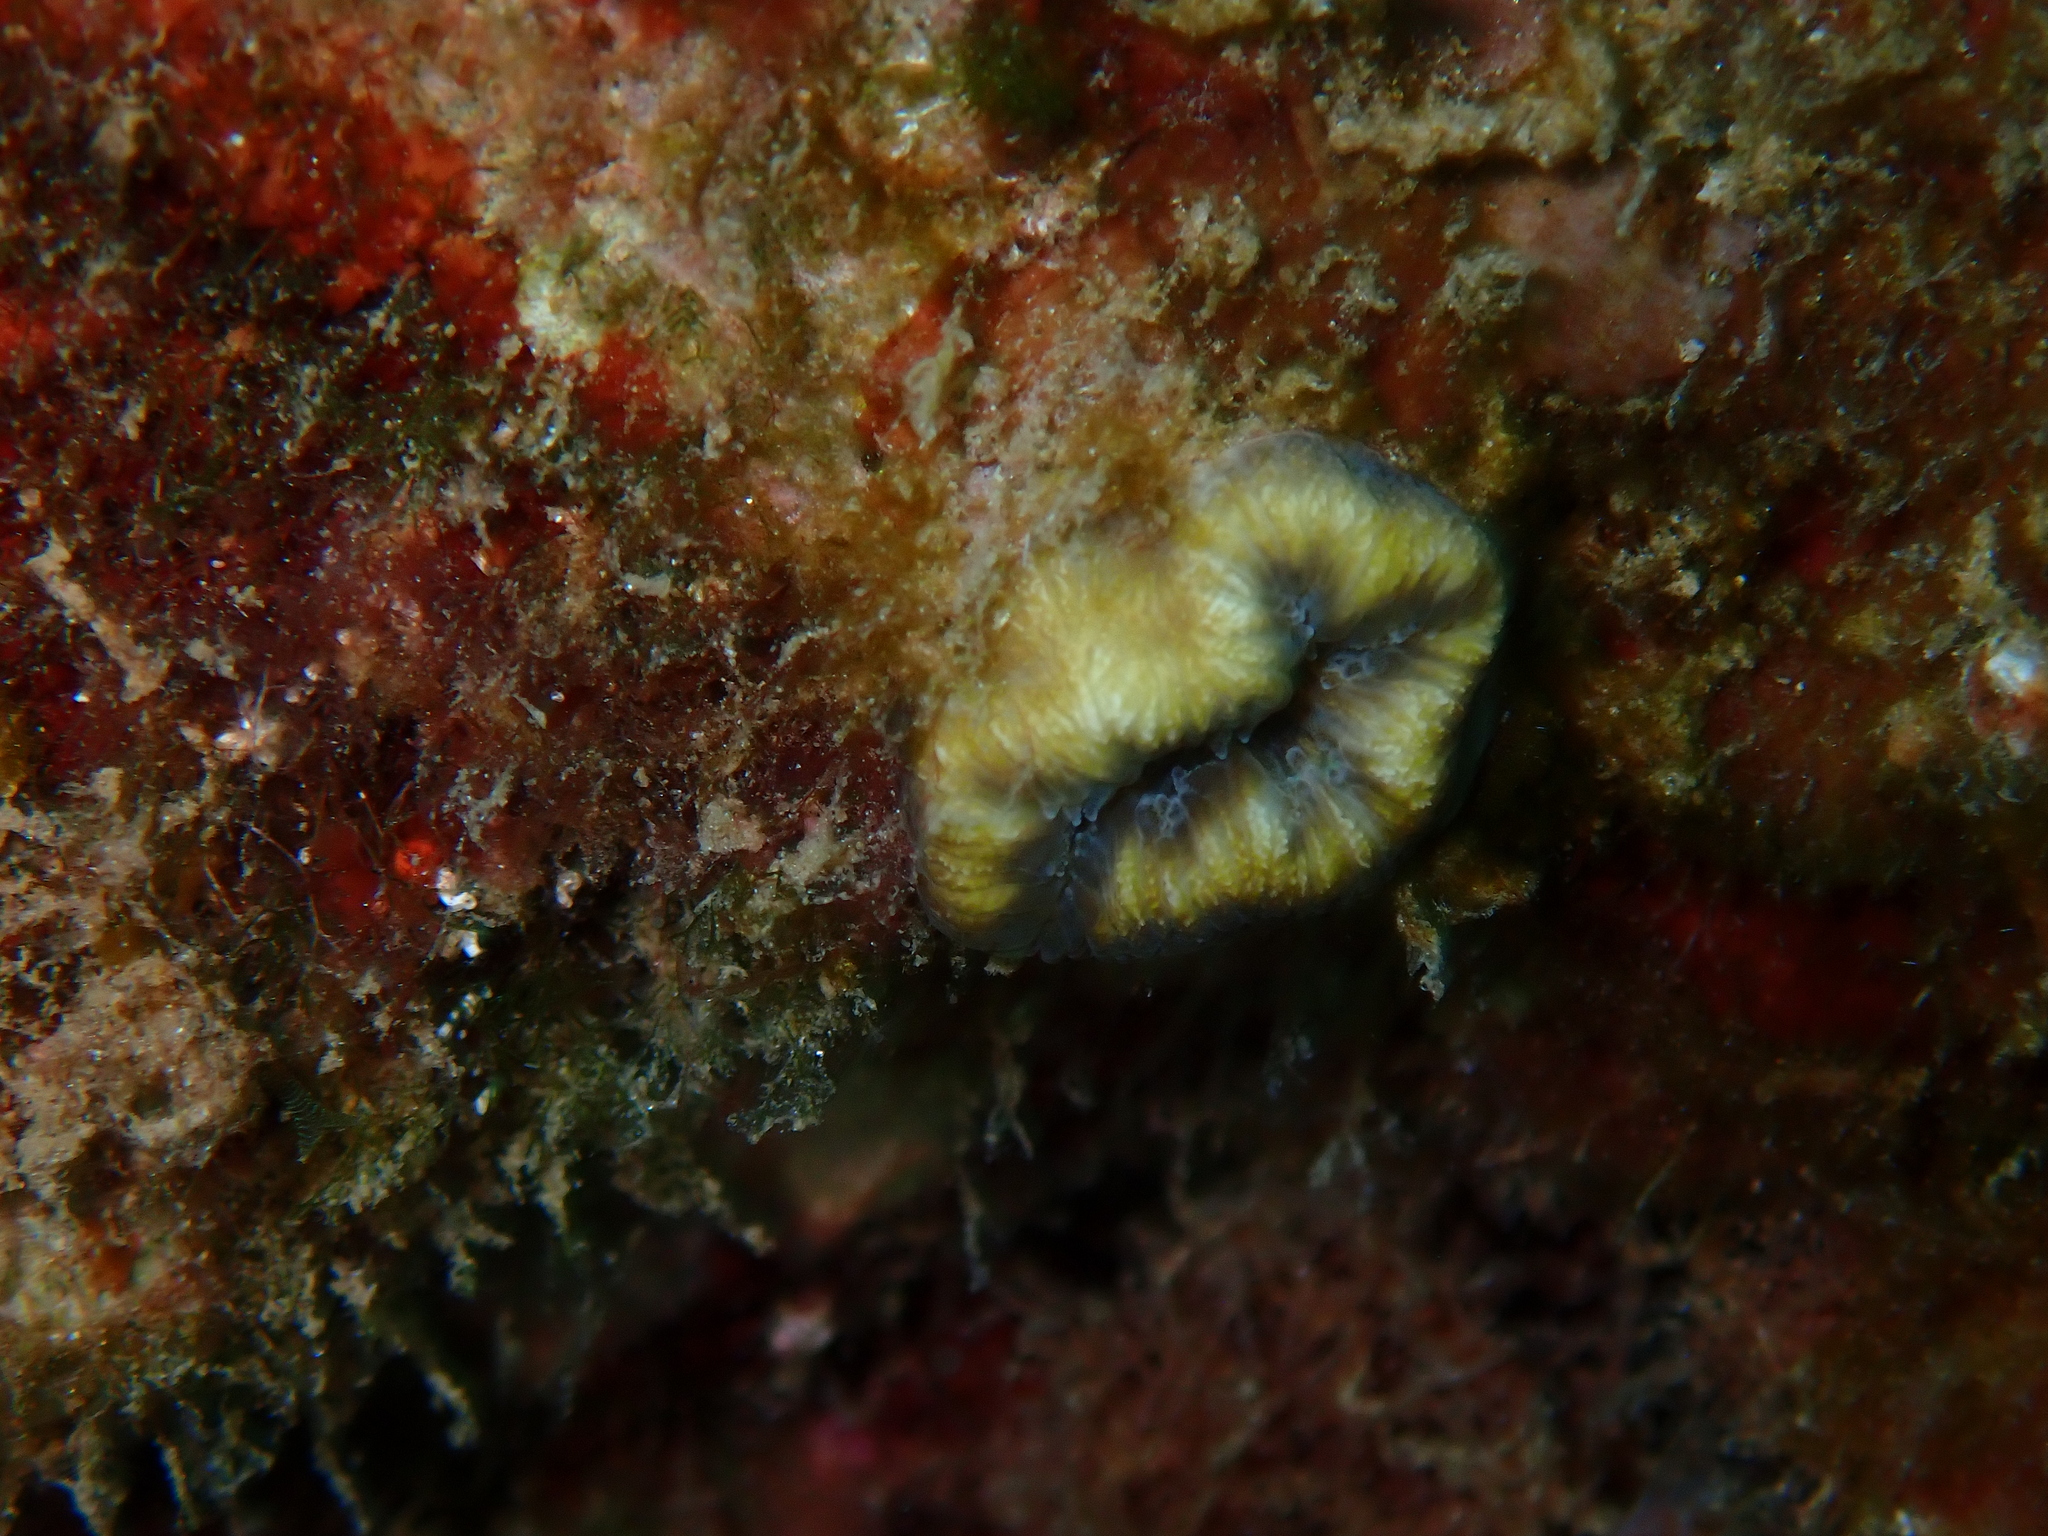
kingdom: Animalia
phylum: Cnidaria
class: Anthozoa
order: Scleractinia
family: Dendrophylliidae
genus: Balanophyllia
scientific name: Balanophyllia europaea
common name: Scarlet coral
